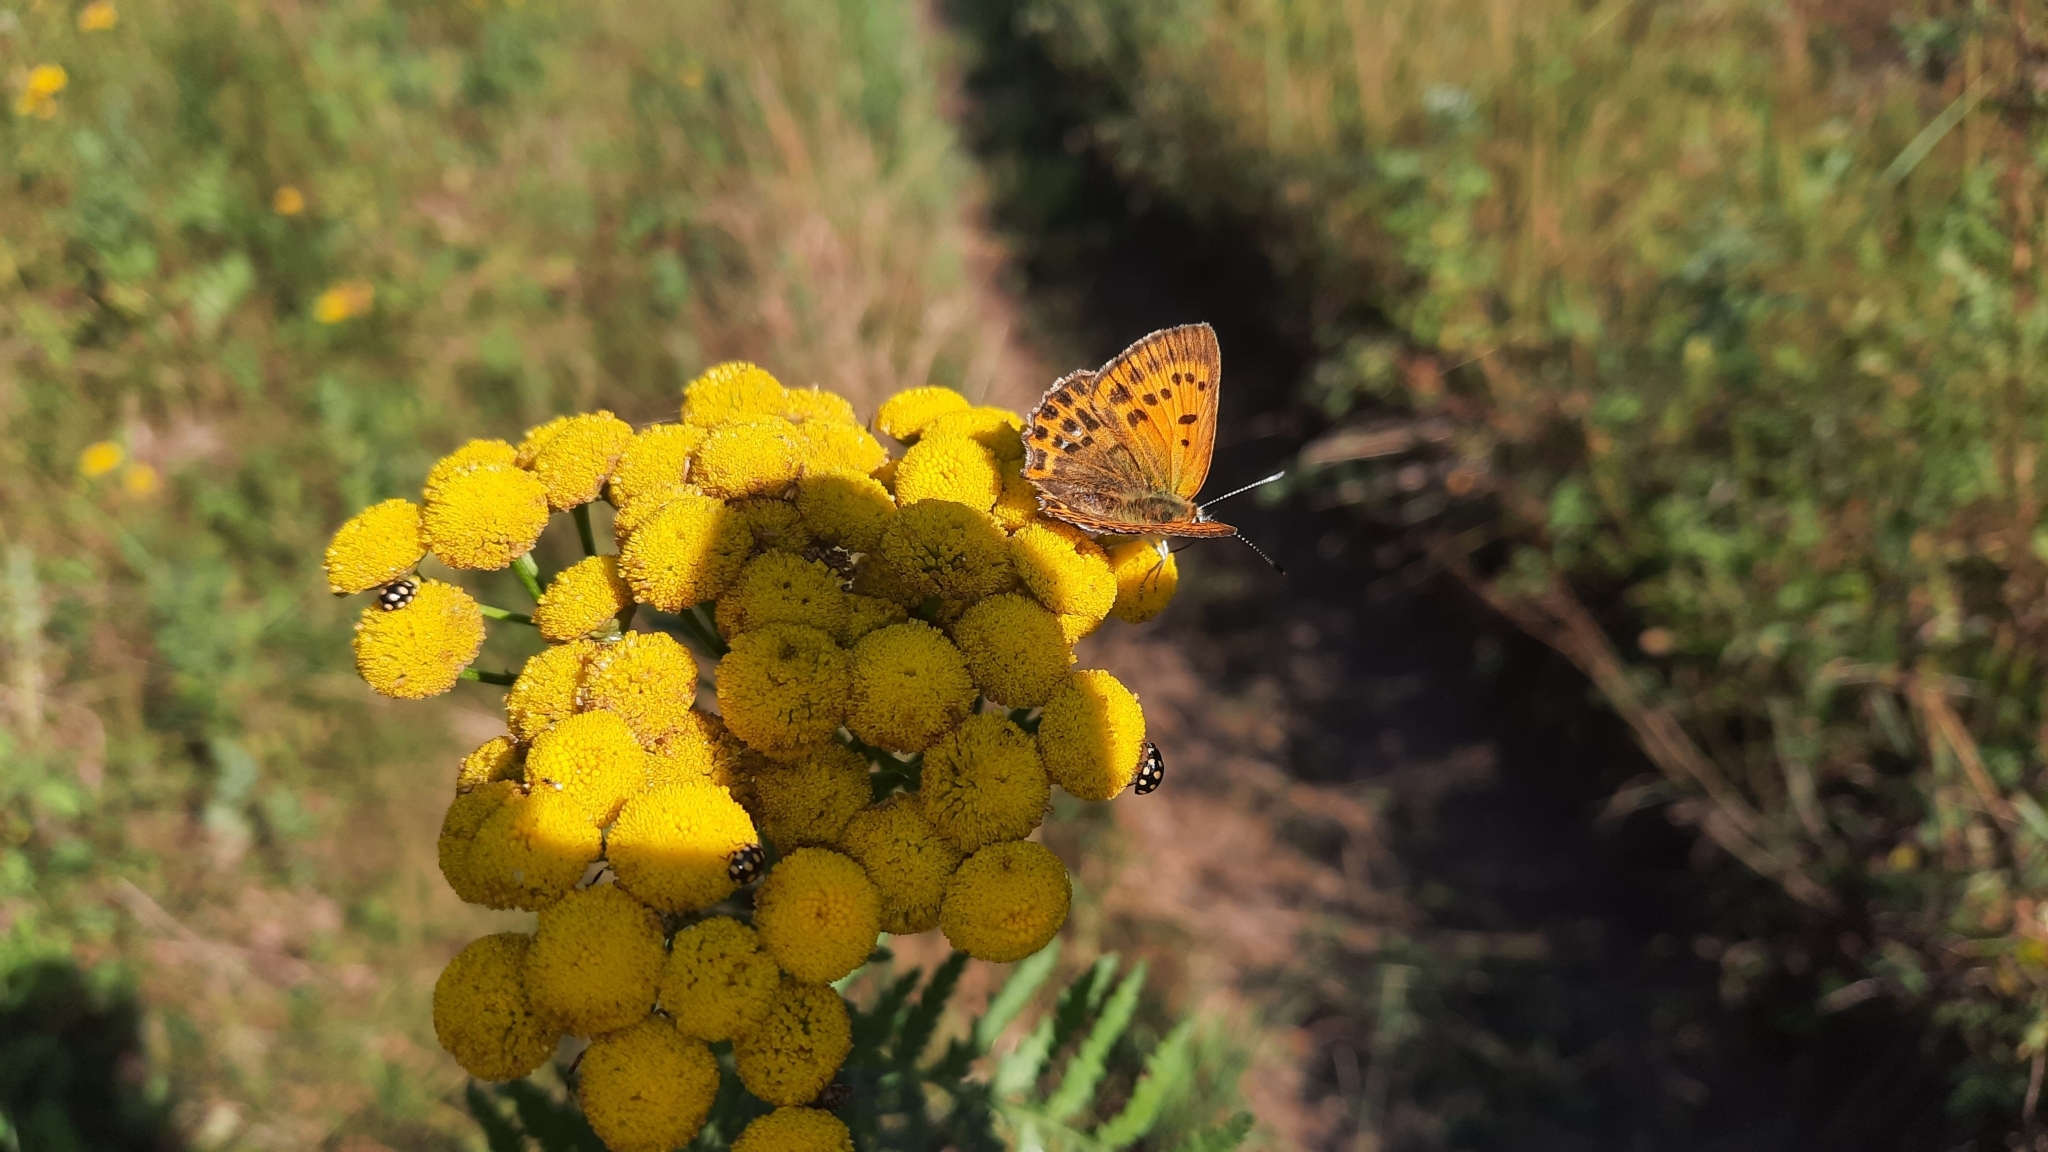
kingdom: Animalia
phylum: Arthropoda
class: Insecta
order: Lepidoptera
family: Lycaenidae
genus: Lycaena
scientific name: Lycaena virgaureae
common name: Scarce copper
